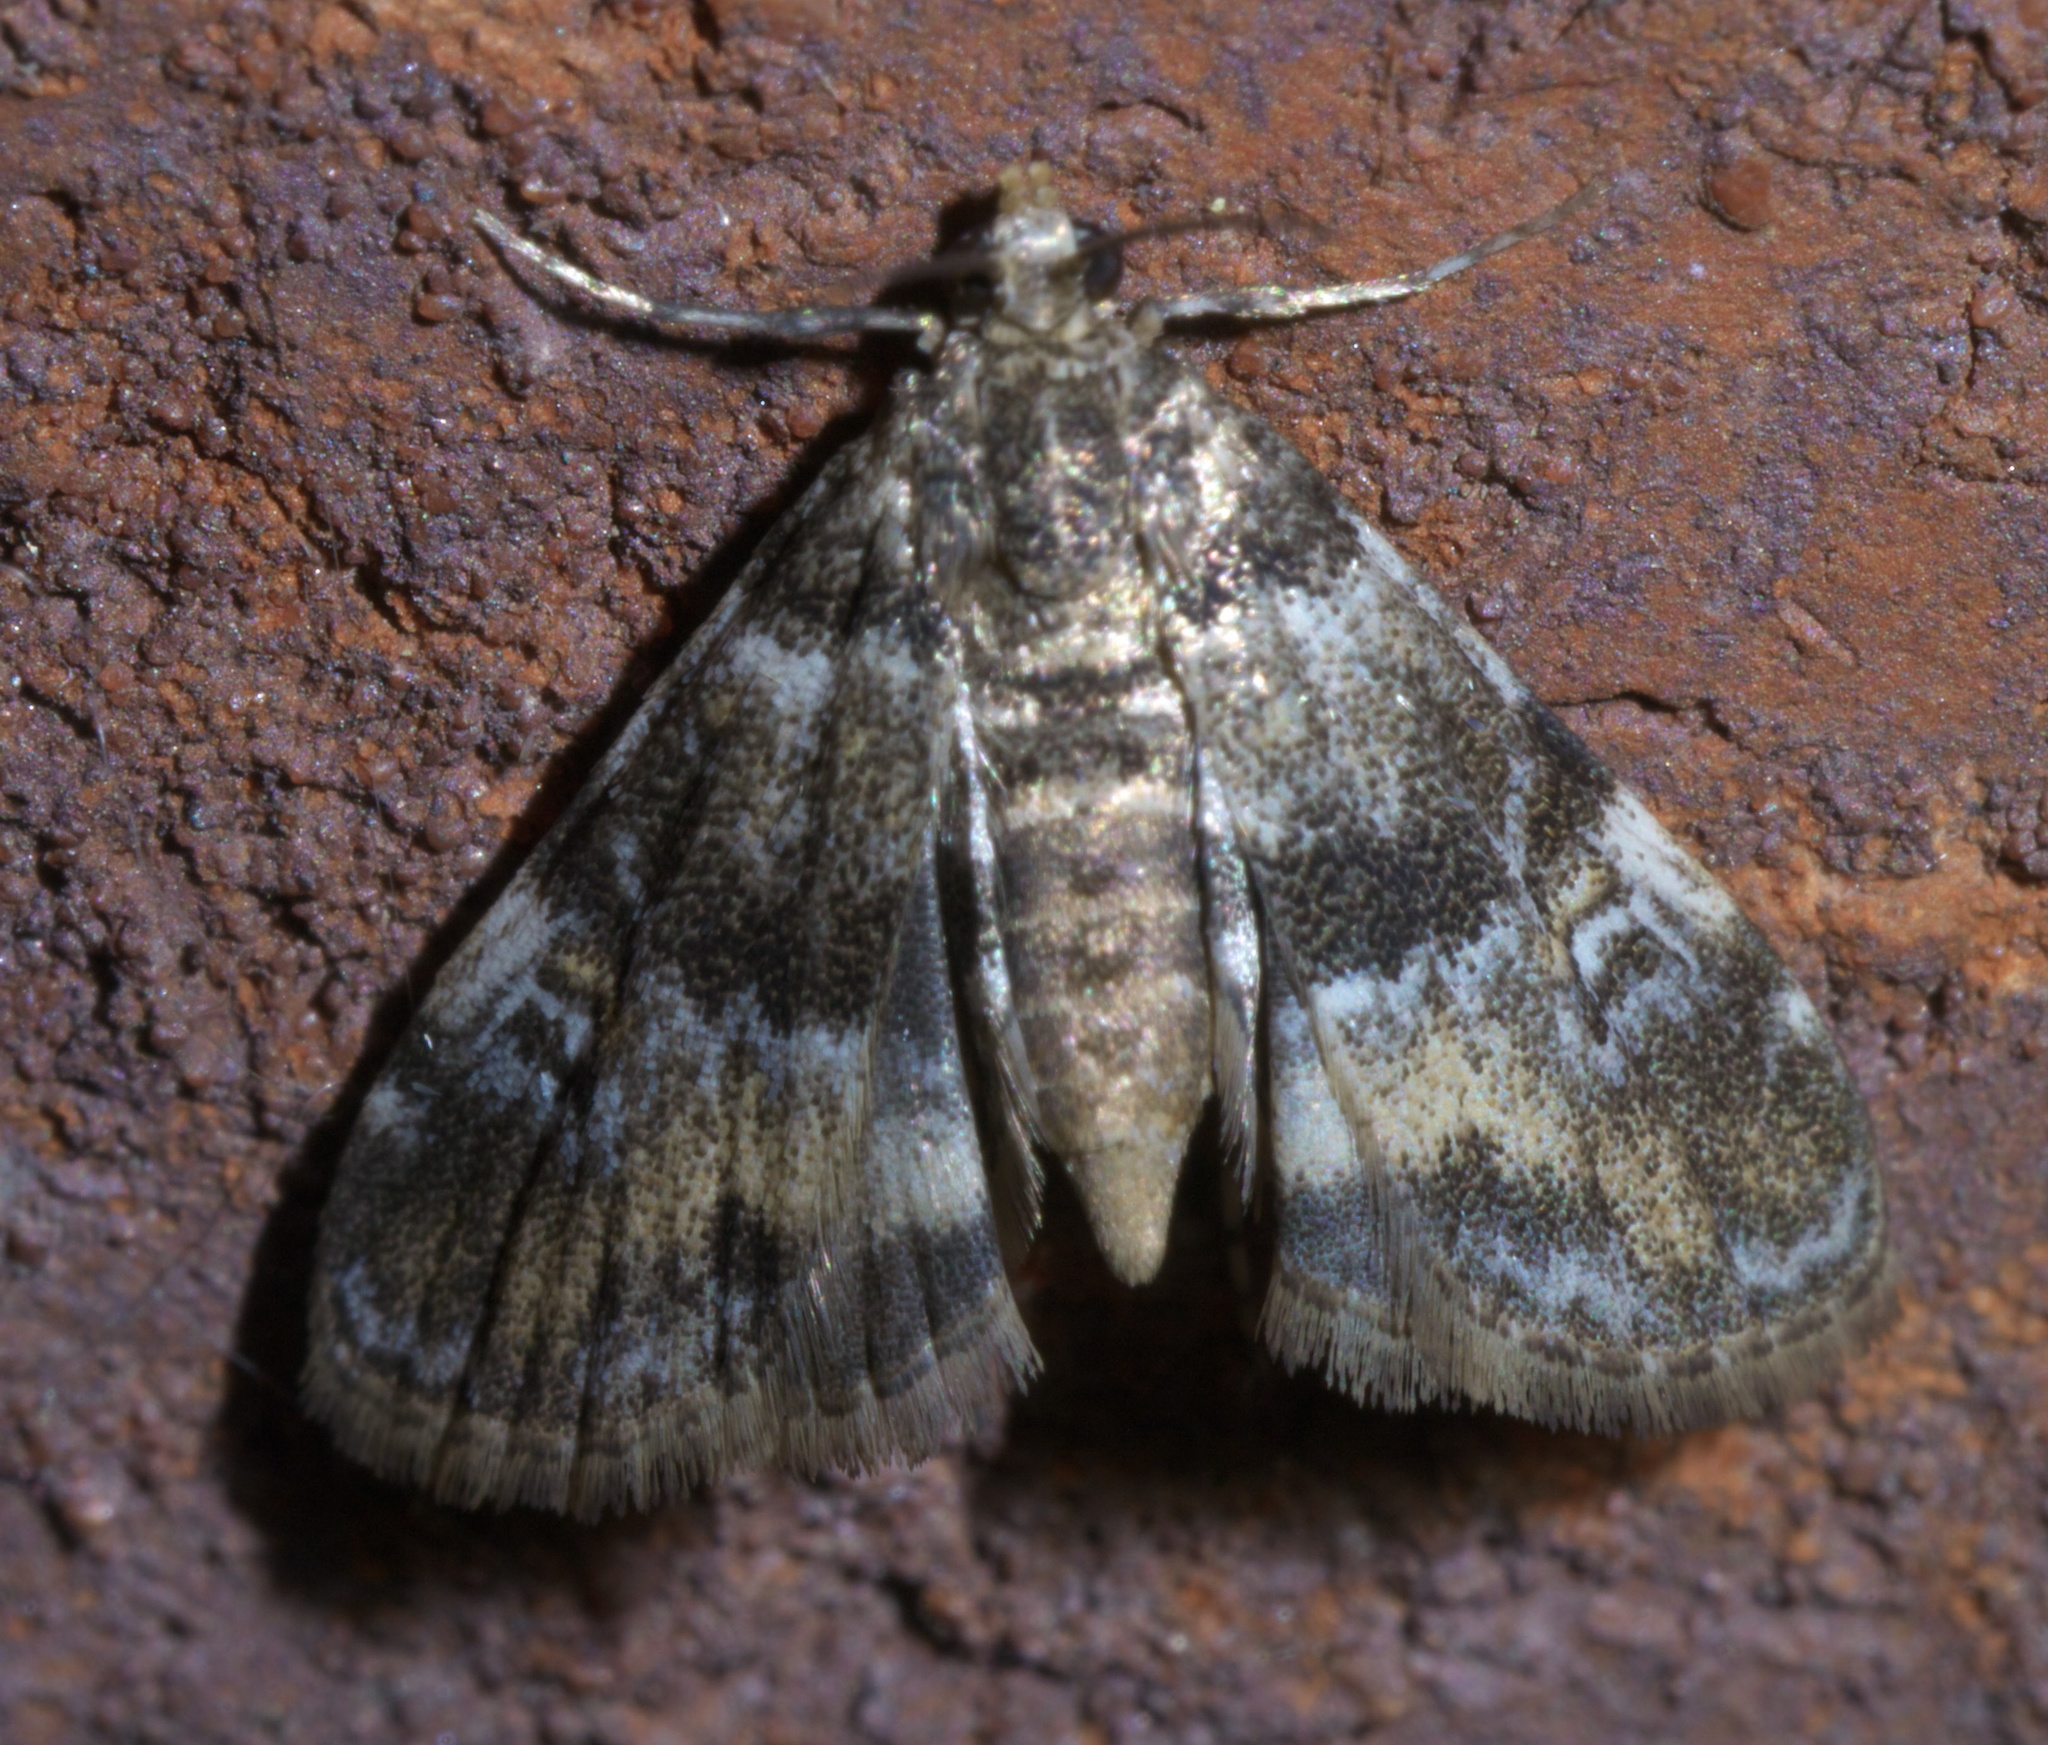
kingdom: Animalia
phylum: Arthropoda
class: Insecta
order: Lepidoptera
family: Crambidae
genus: Elophila
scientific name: Elophila obliteralis
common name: Waterlily leafcutter moth
